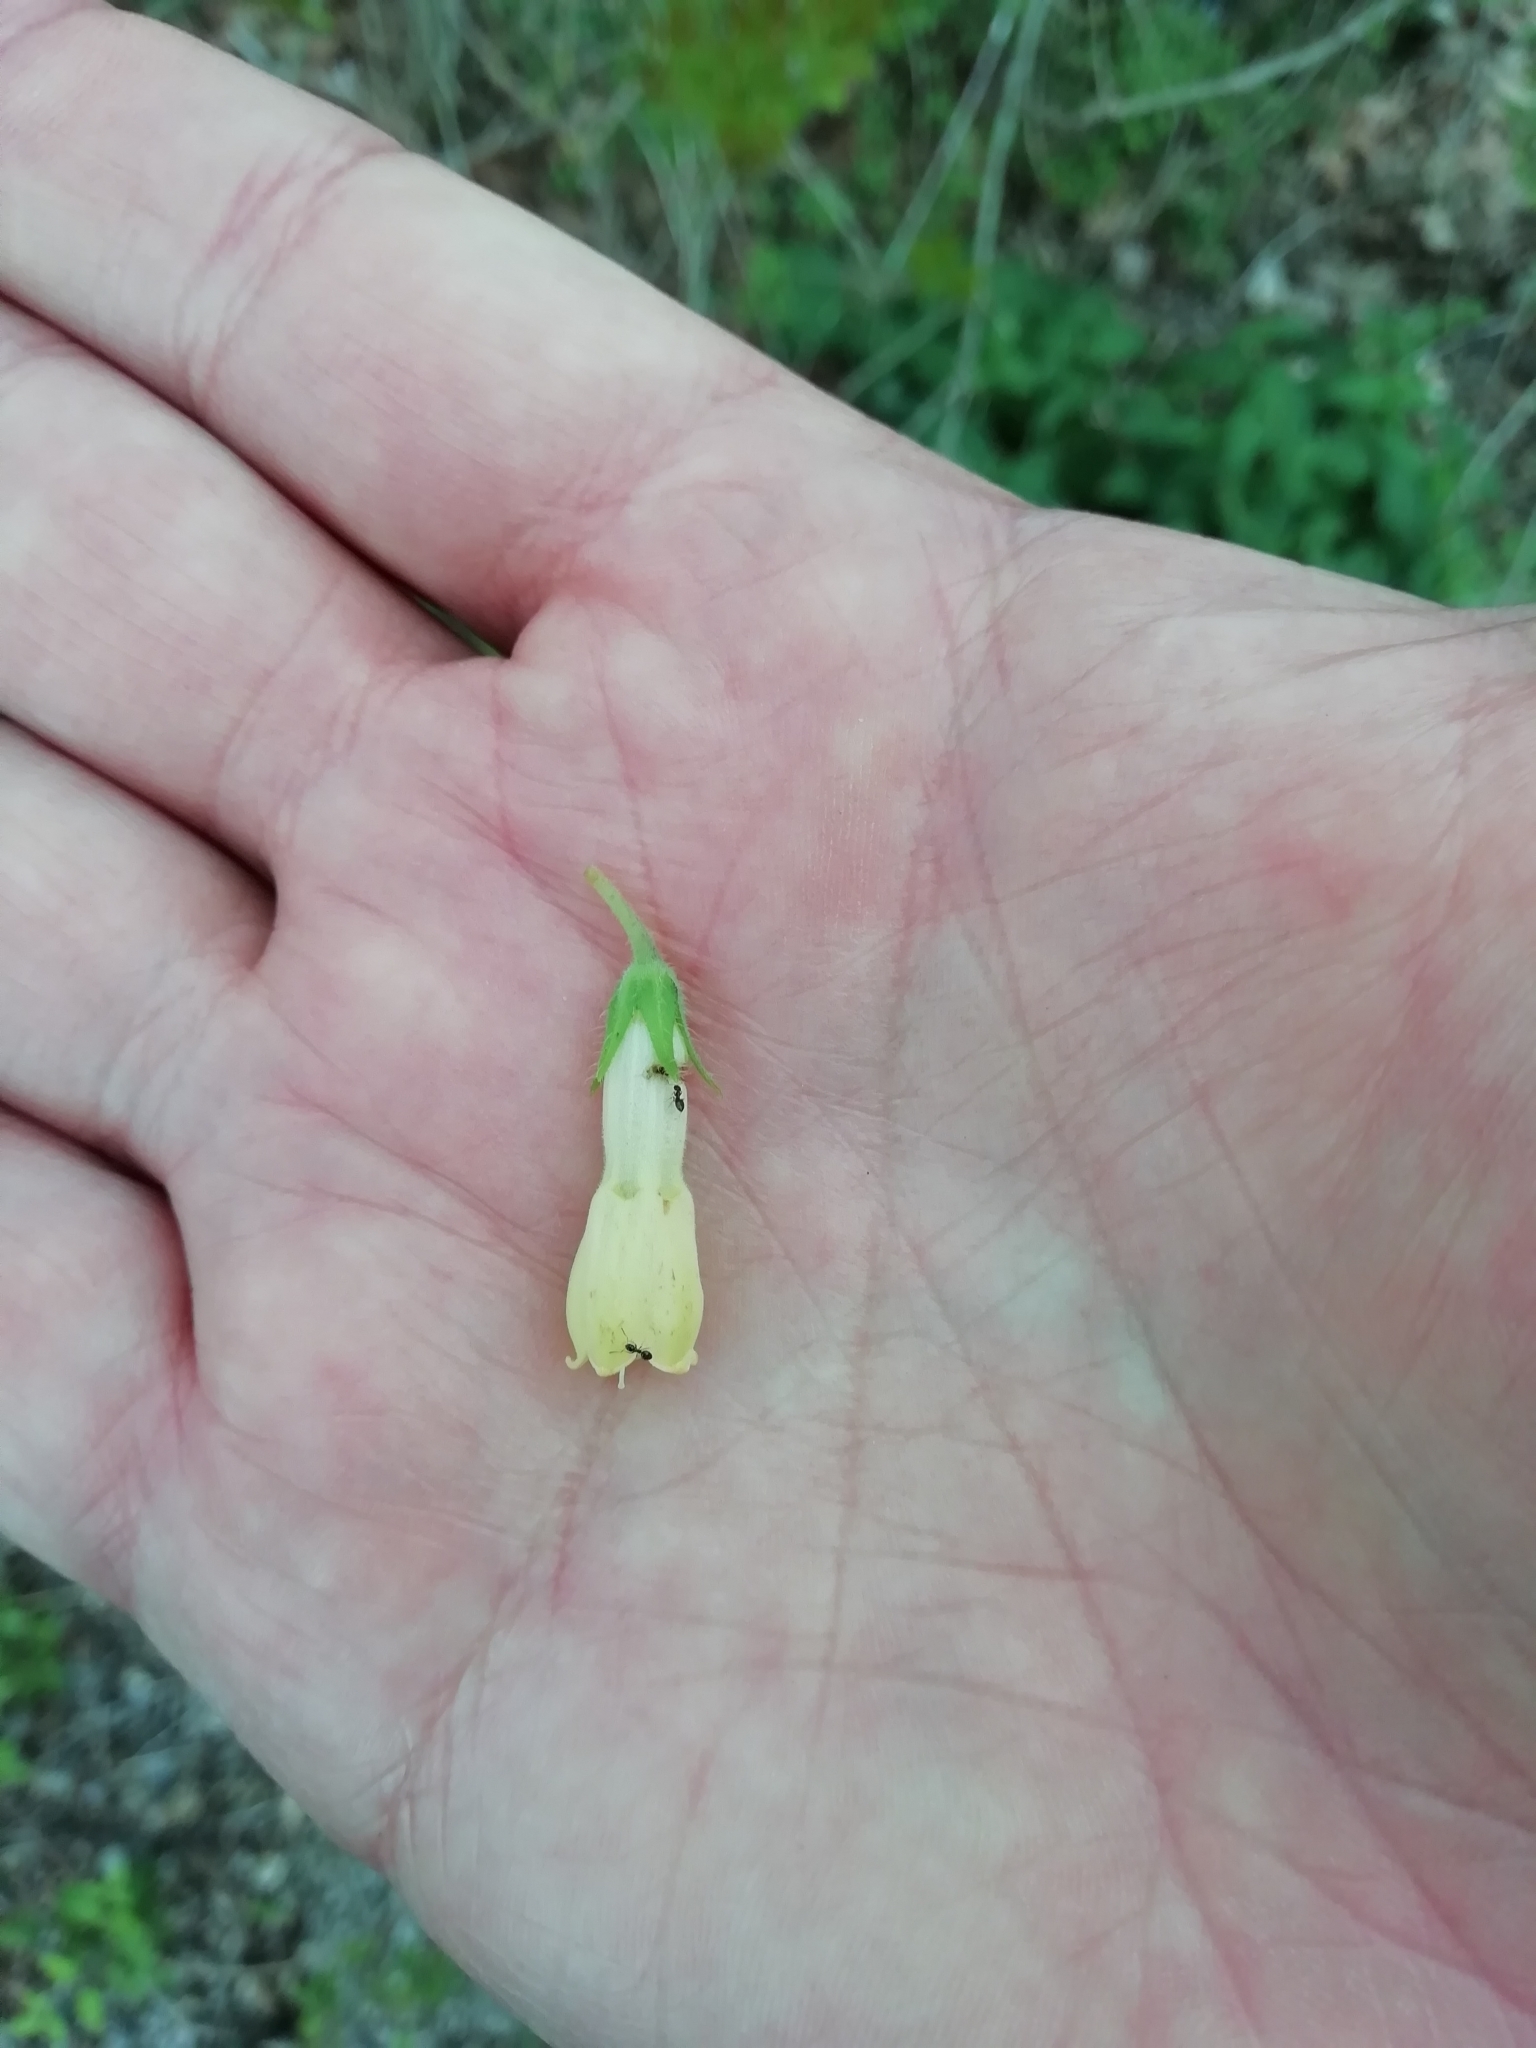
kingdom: Plantae
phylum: Tracheophyta
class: Magnoliopsida
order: Boraginales
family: Boraginaceae
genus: Symphytum
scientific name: Symphytum tuberosum
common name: Tuberous comfrey
